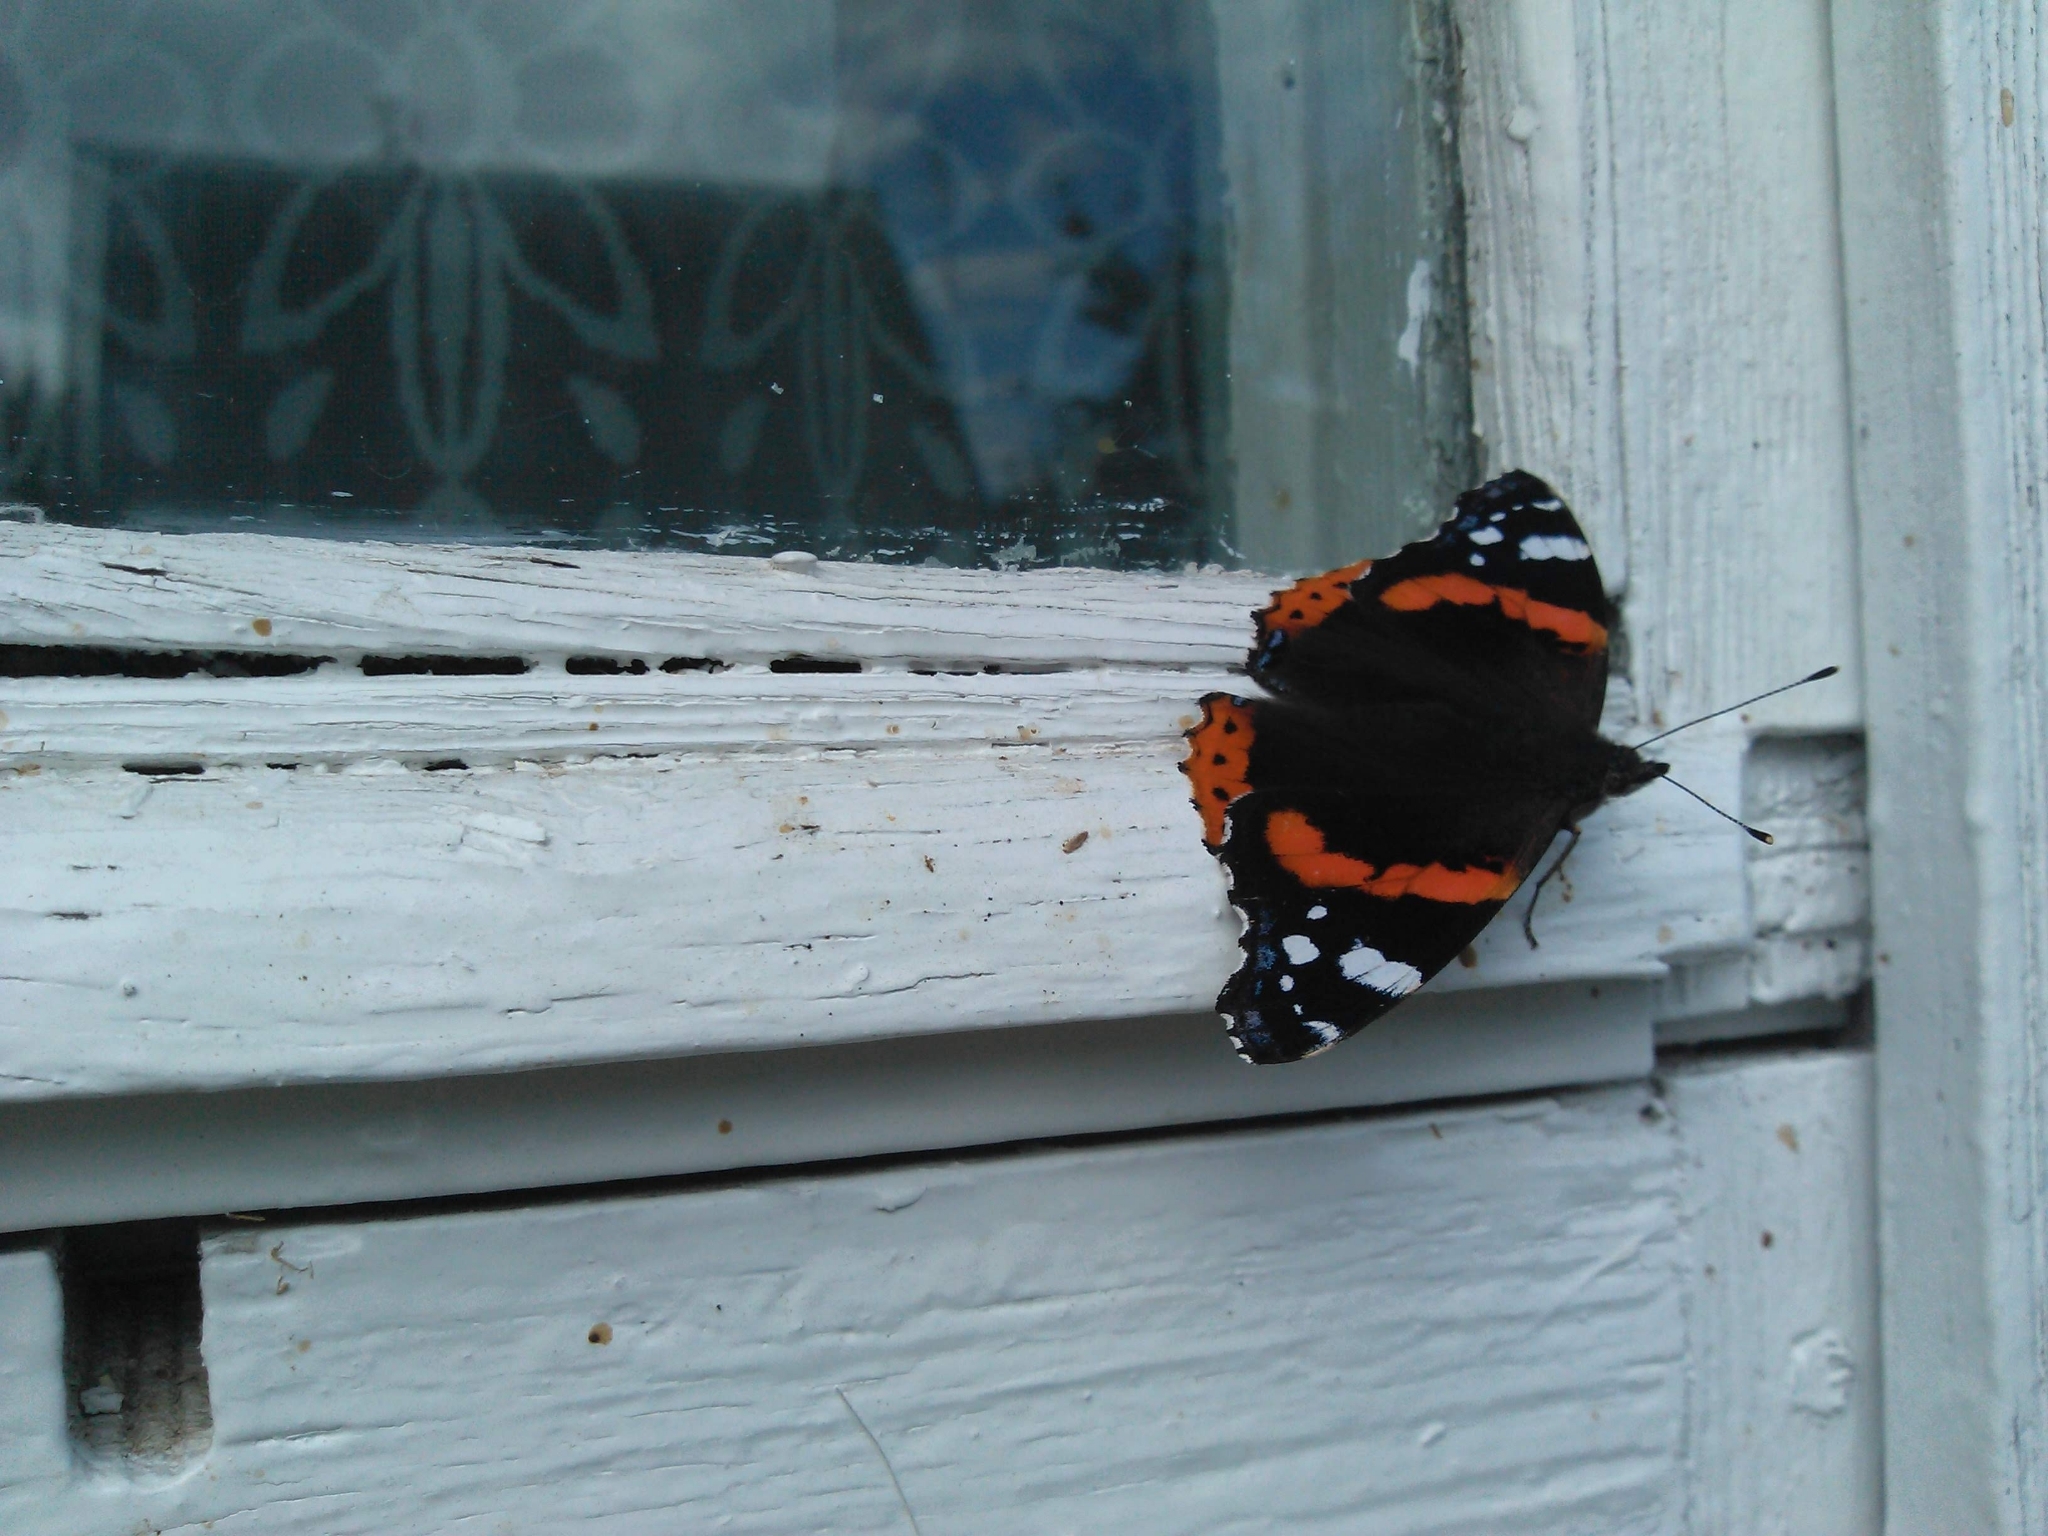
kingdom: Animalia
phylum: Arthropoda
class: Insecta
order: Lepidoptera
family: Nymphalidae
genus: Vanessa
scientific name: Vanessa atalanta
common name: Red admiral
